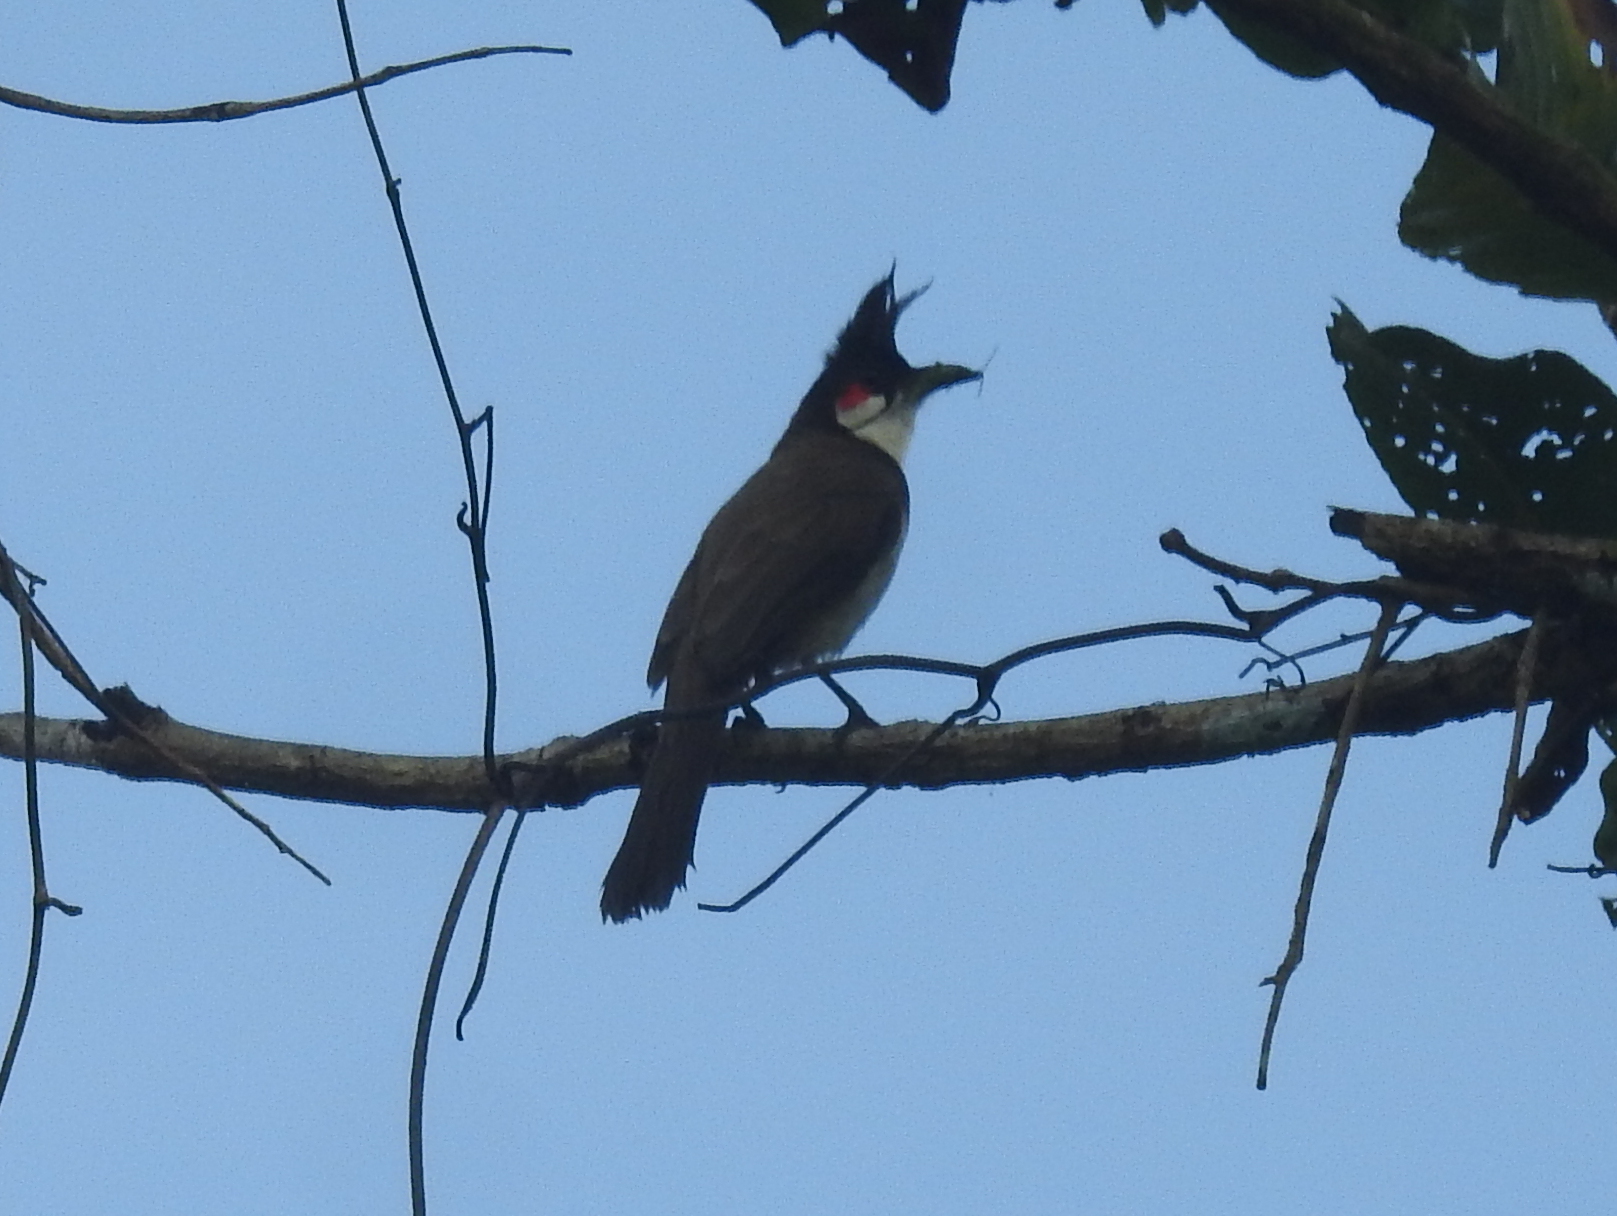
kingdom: Animalia
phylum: Chordata
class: Aves
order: Passeriformes
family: Pycnonotidae
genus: Pycnonotus
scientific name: Pycnonotus jocosus
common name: Red-whiskered bulbul
